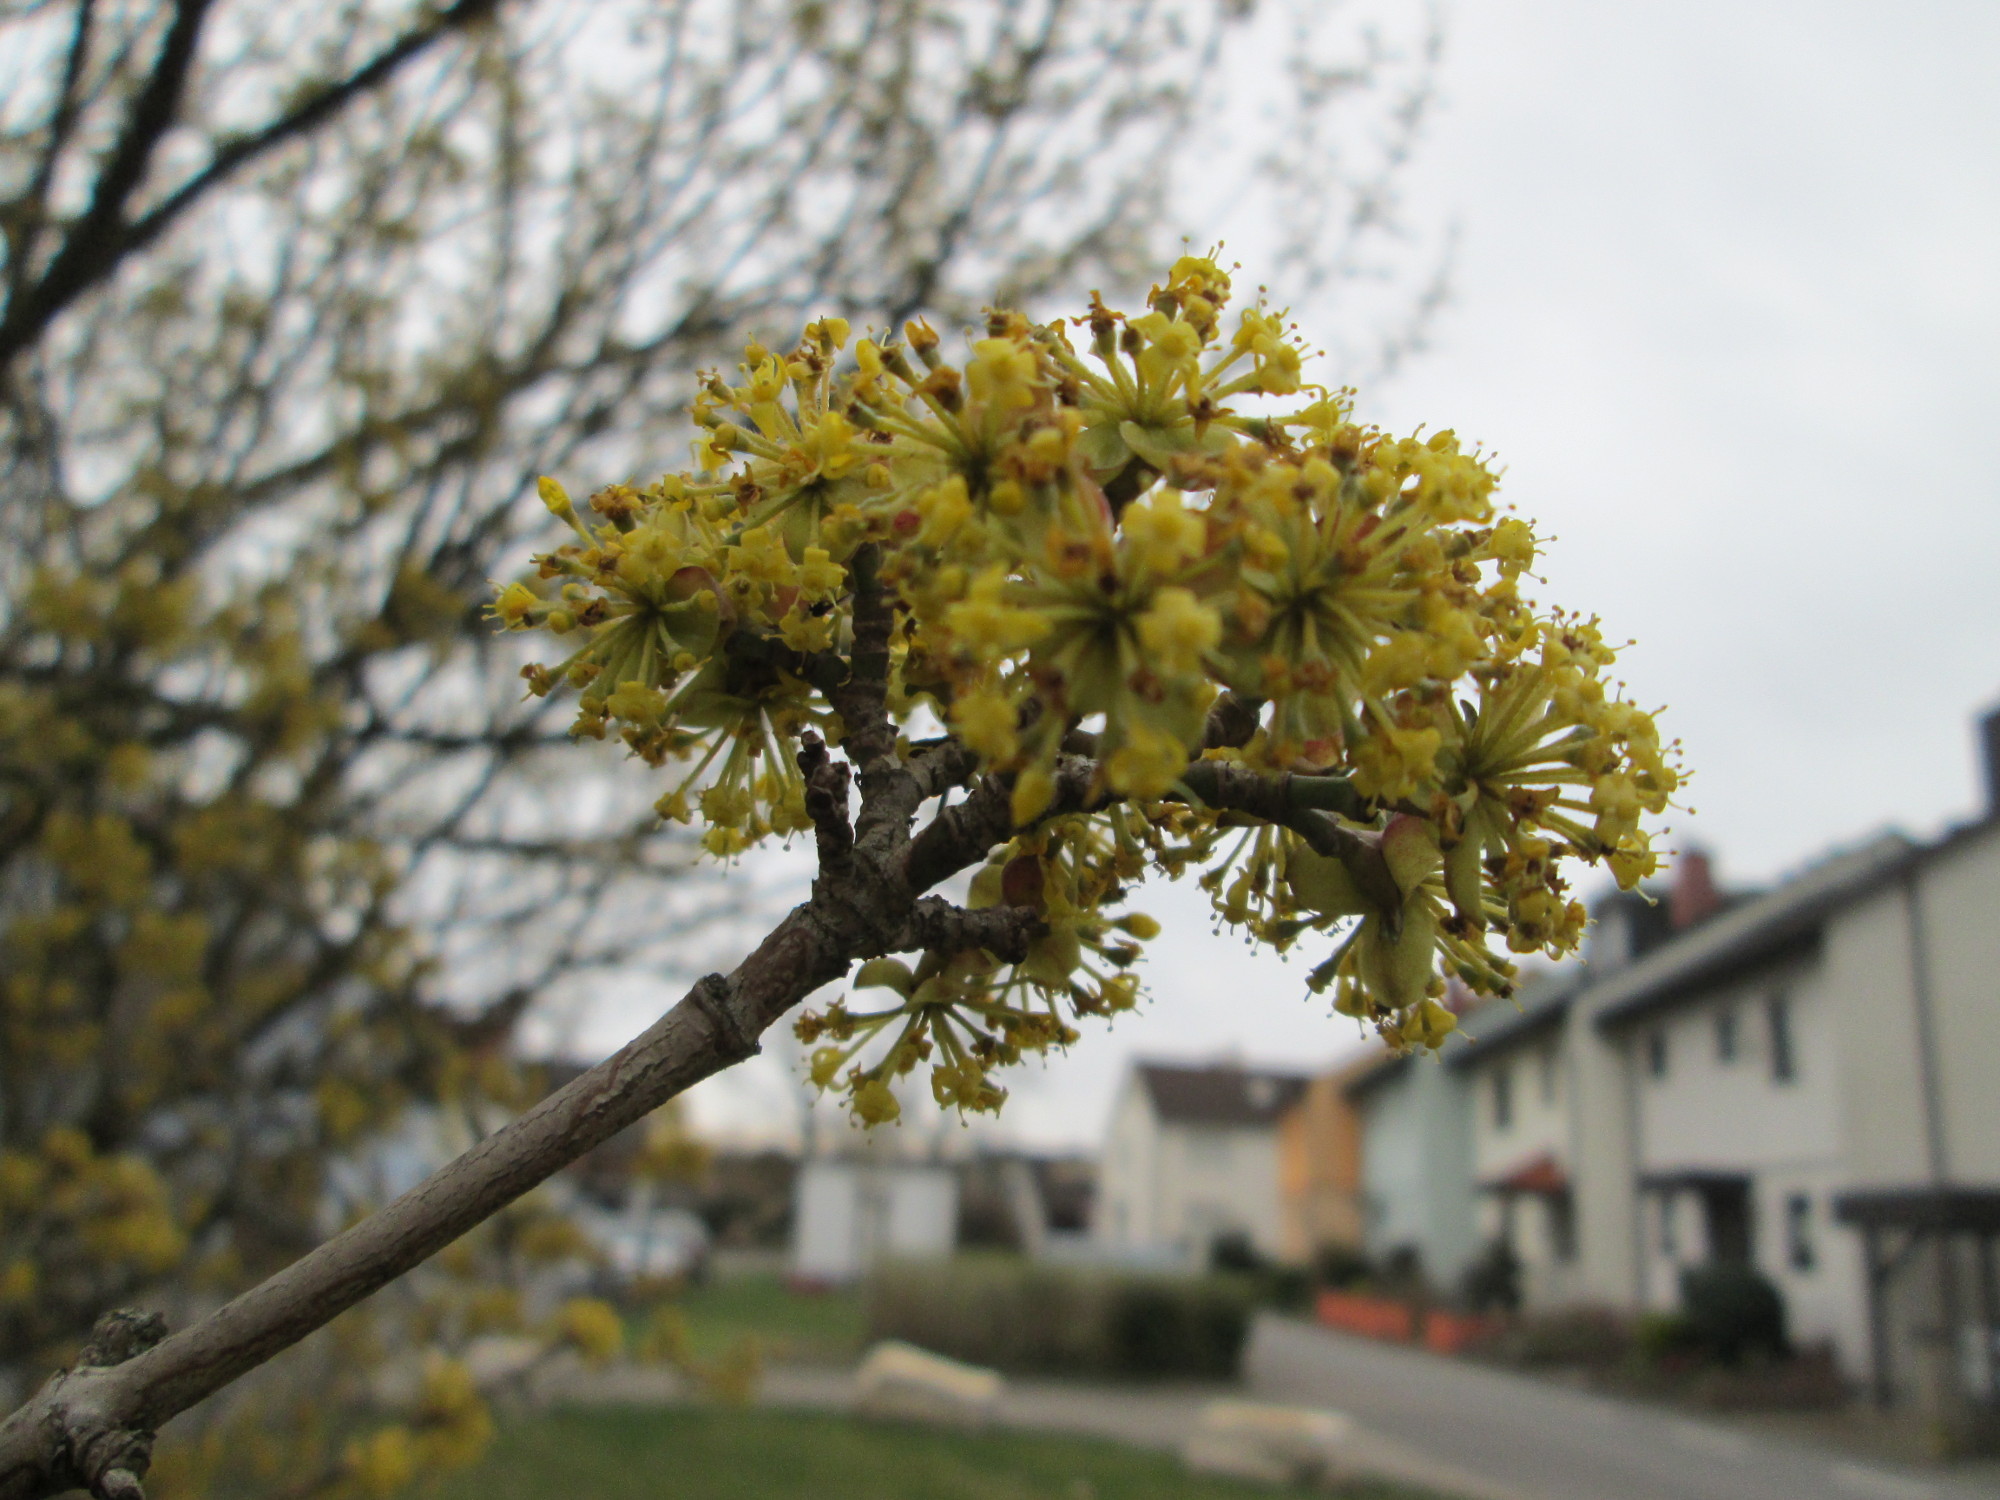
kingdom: Plantae
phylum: Tracheophyta
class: Magnoliopsida
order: Cornales
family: Cornaceae
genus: Cornus
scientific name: Cornus mas
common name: Cornelian-cherry
